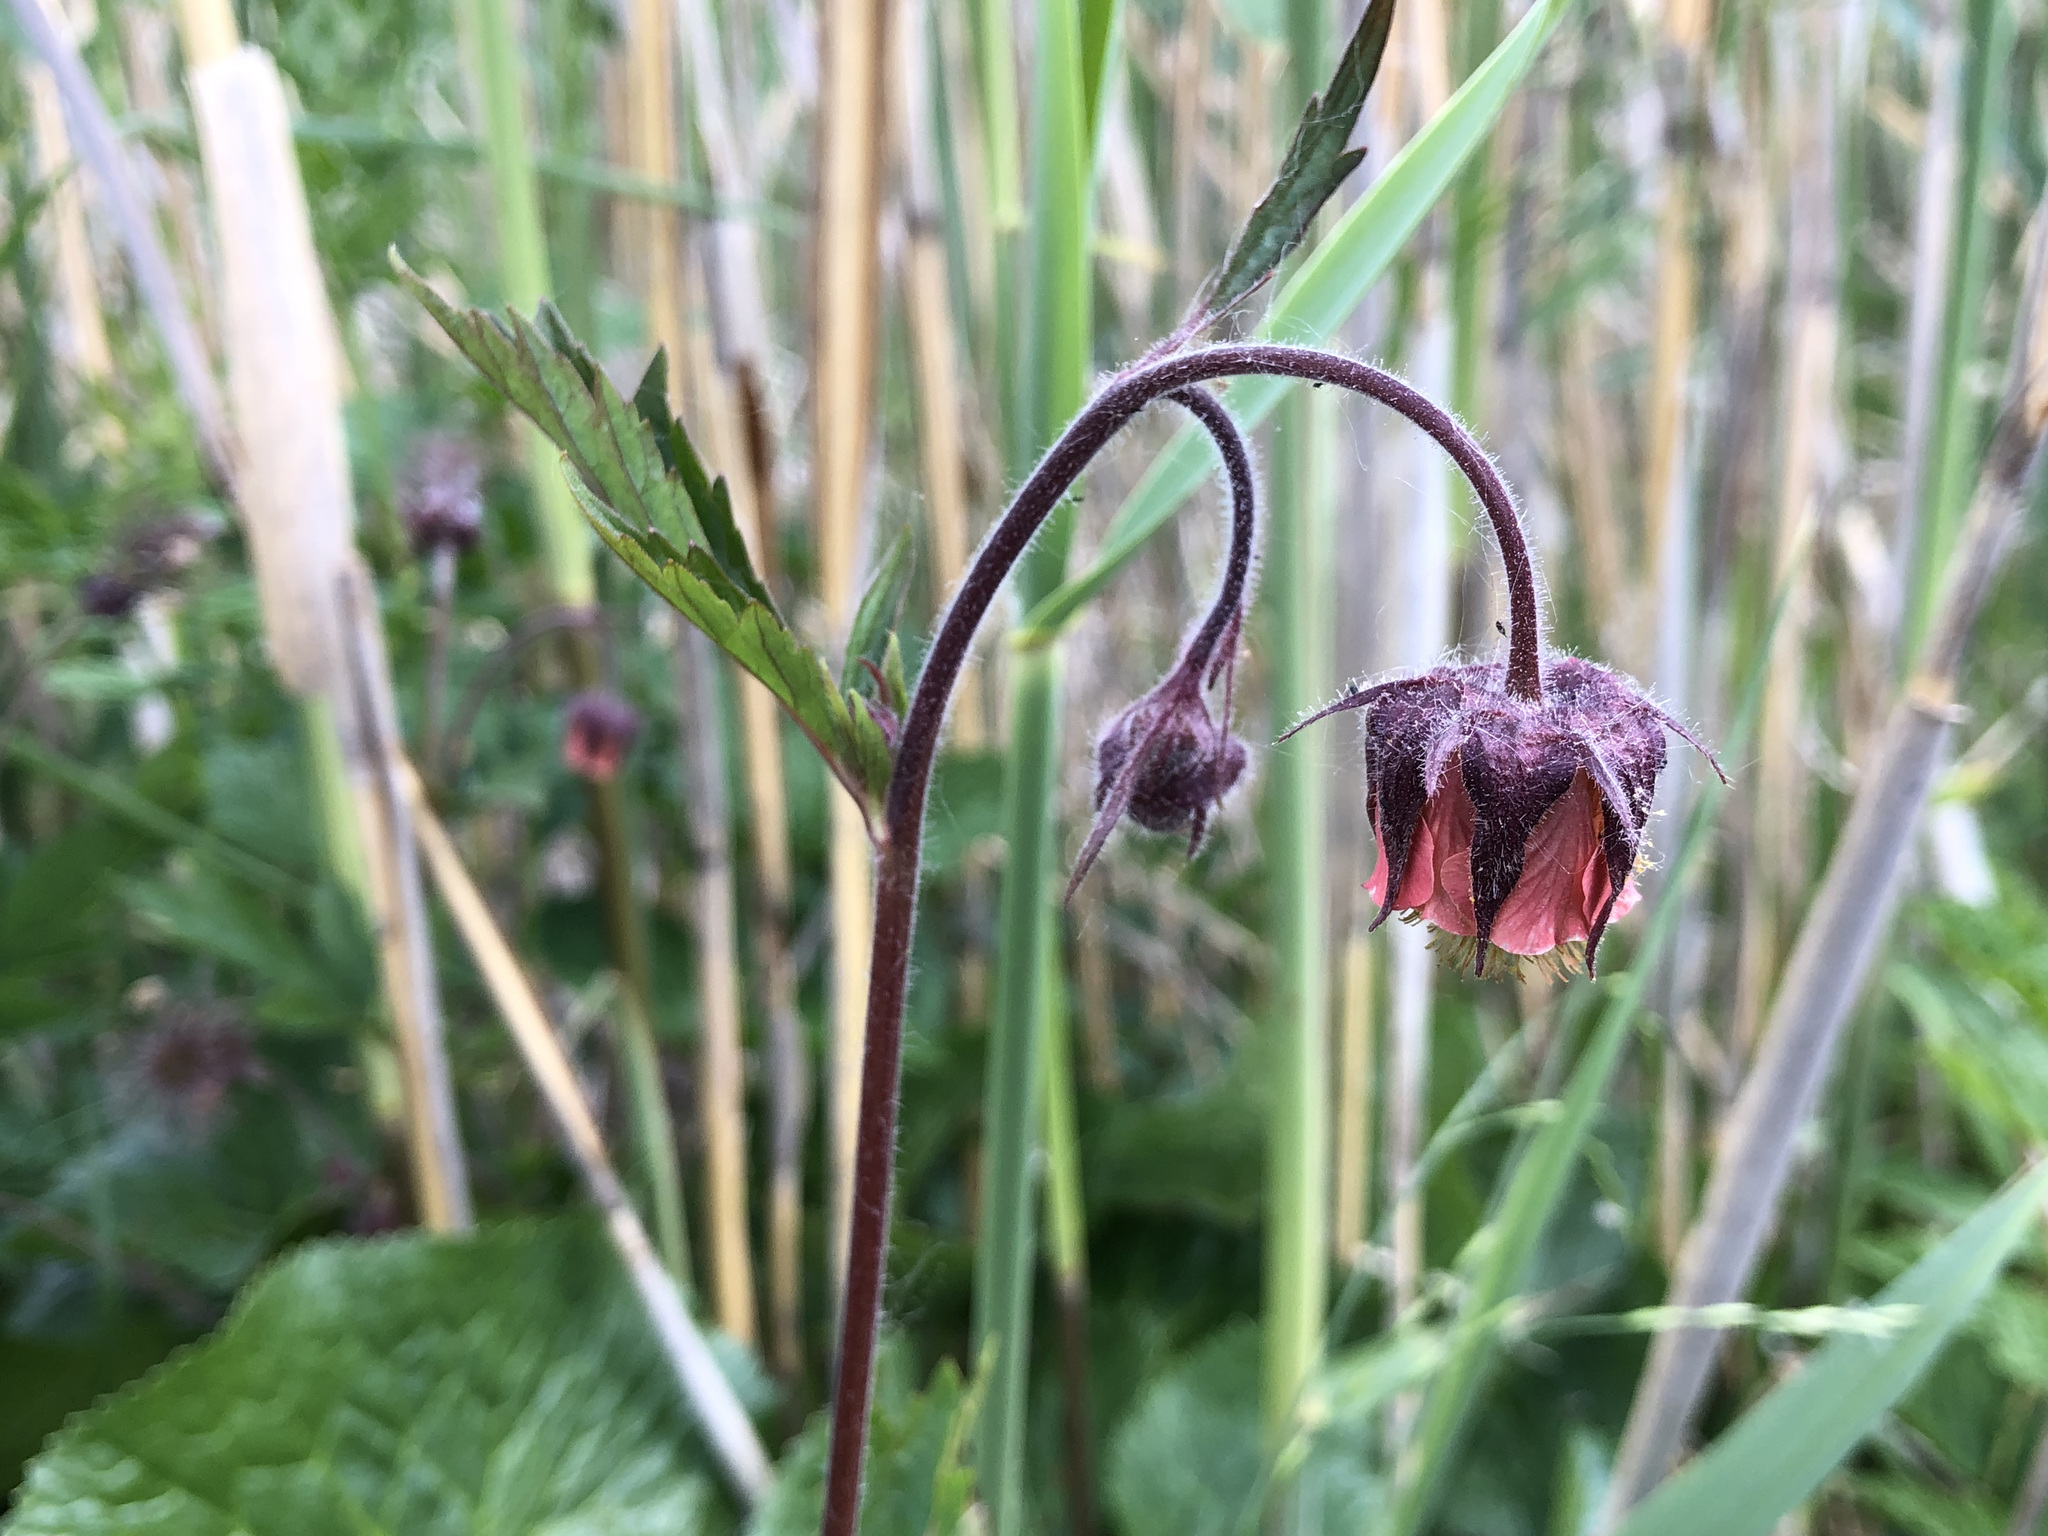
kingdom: Plantae
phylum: Tracheophyta
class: Magnoliopsida
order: Rosales
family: Rosaceae
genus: Geum
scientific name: Geum rivale
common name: Water avens
